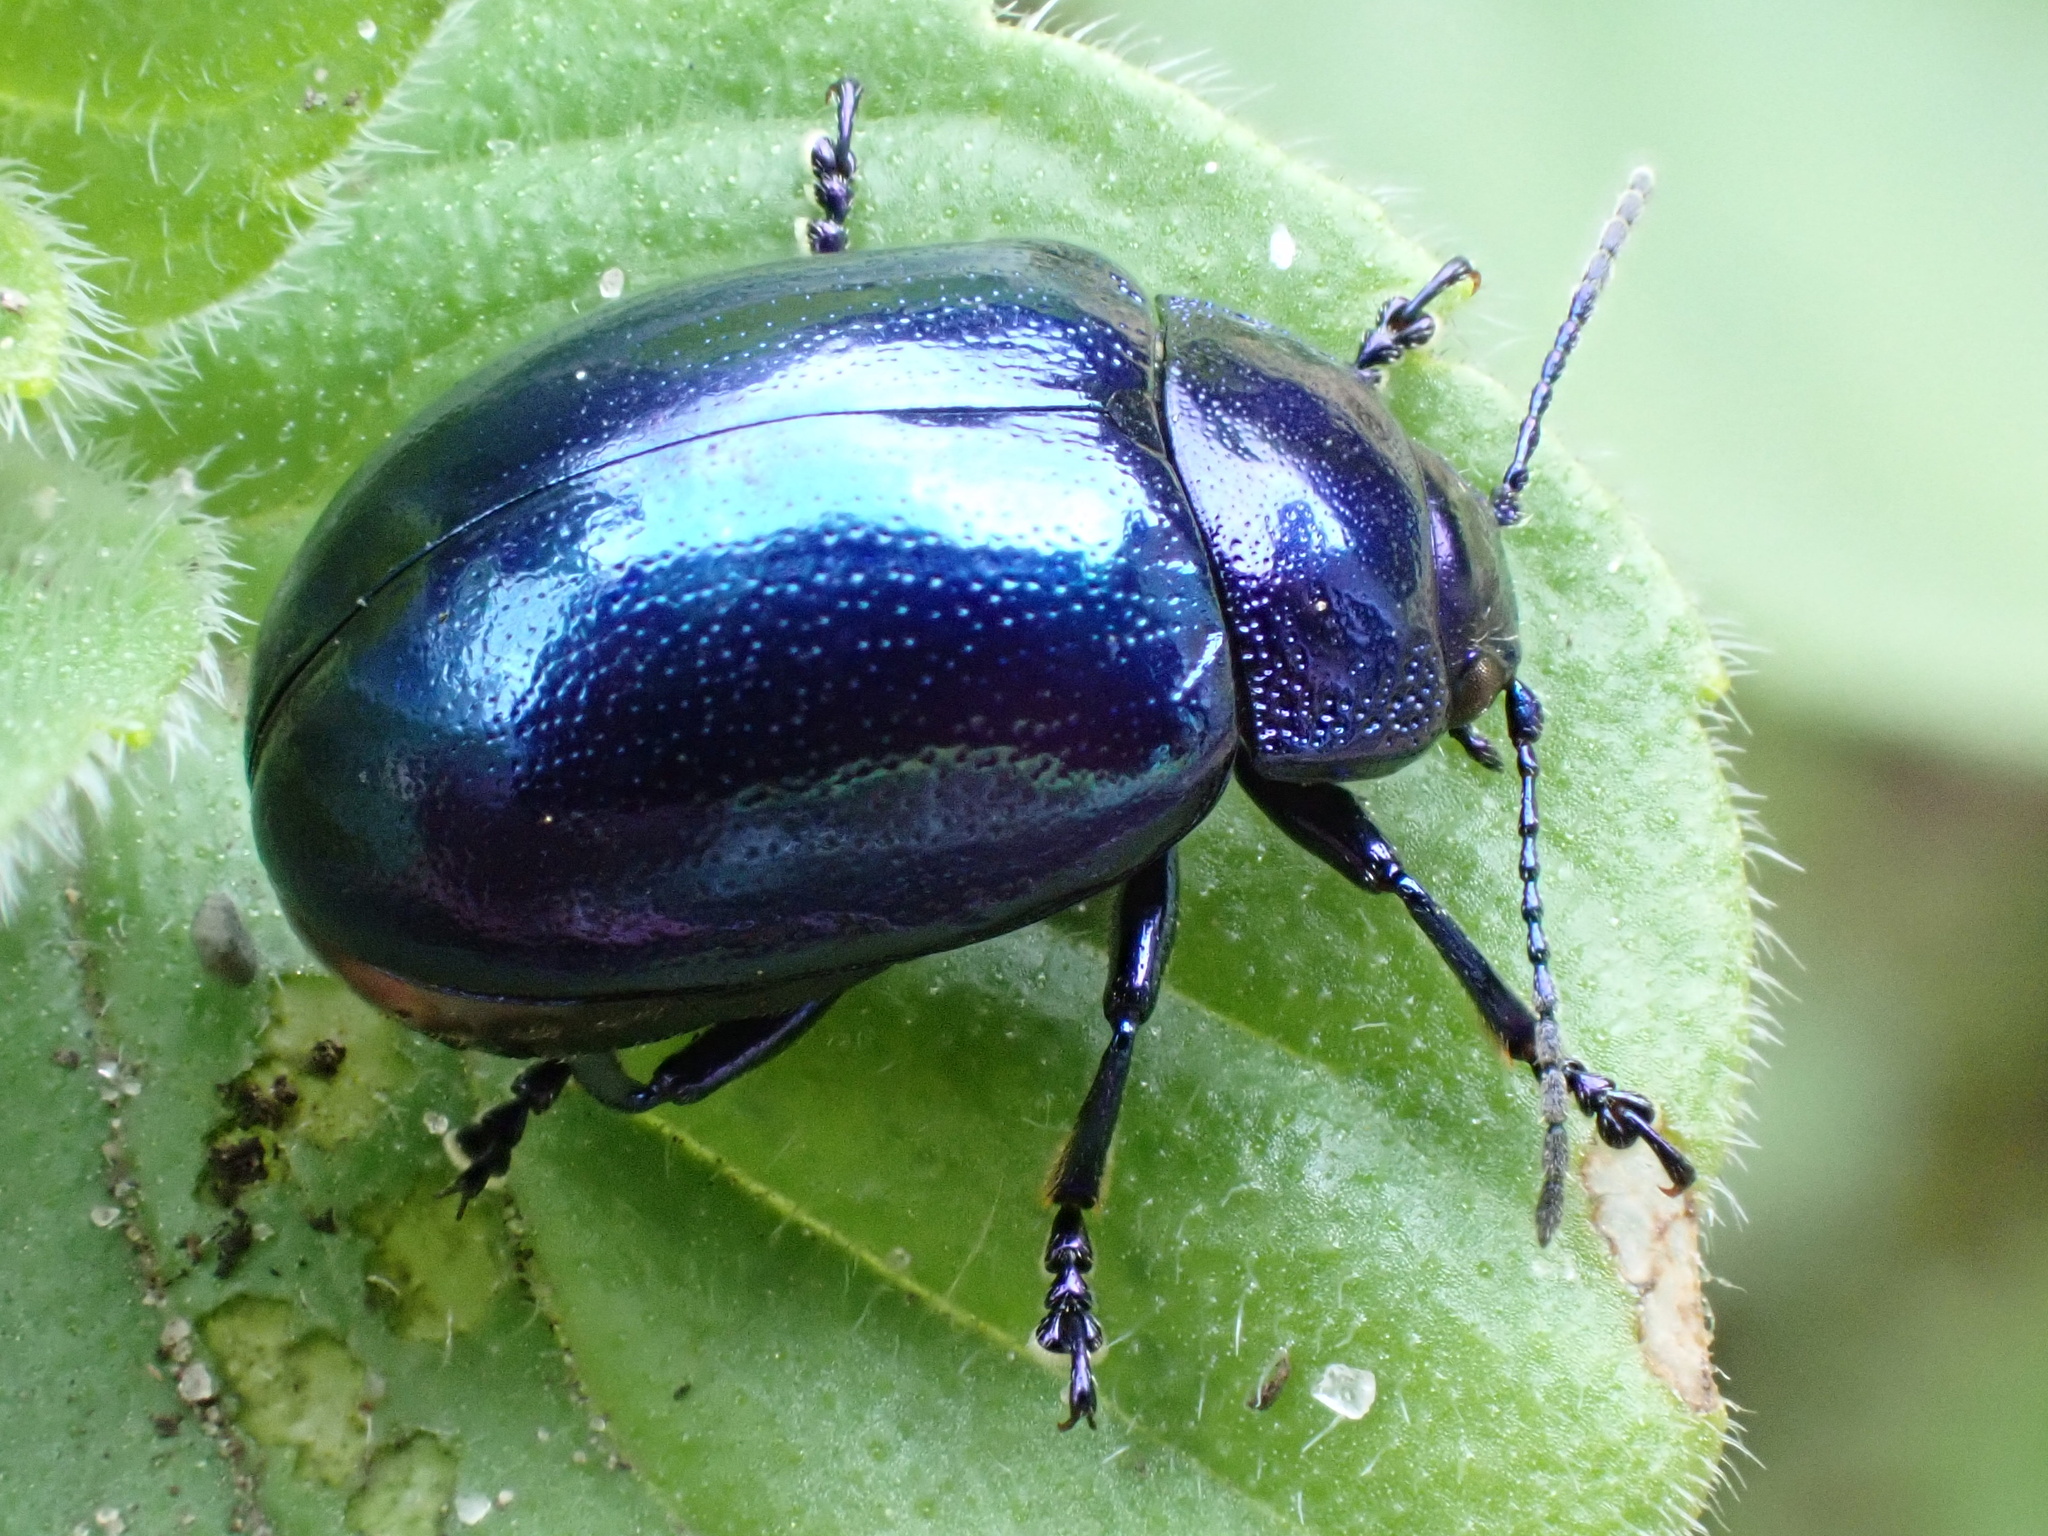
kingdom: Animalia
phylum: Arthropoda
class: Insecta
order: Coleoptera
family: Chrysomelidae
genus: Chrysolina
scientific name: Chrysolina coerulans
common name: Blue mint beetle
